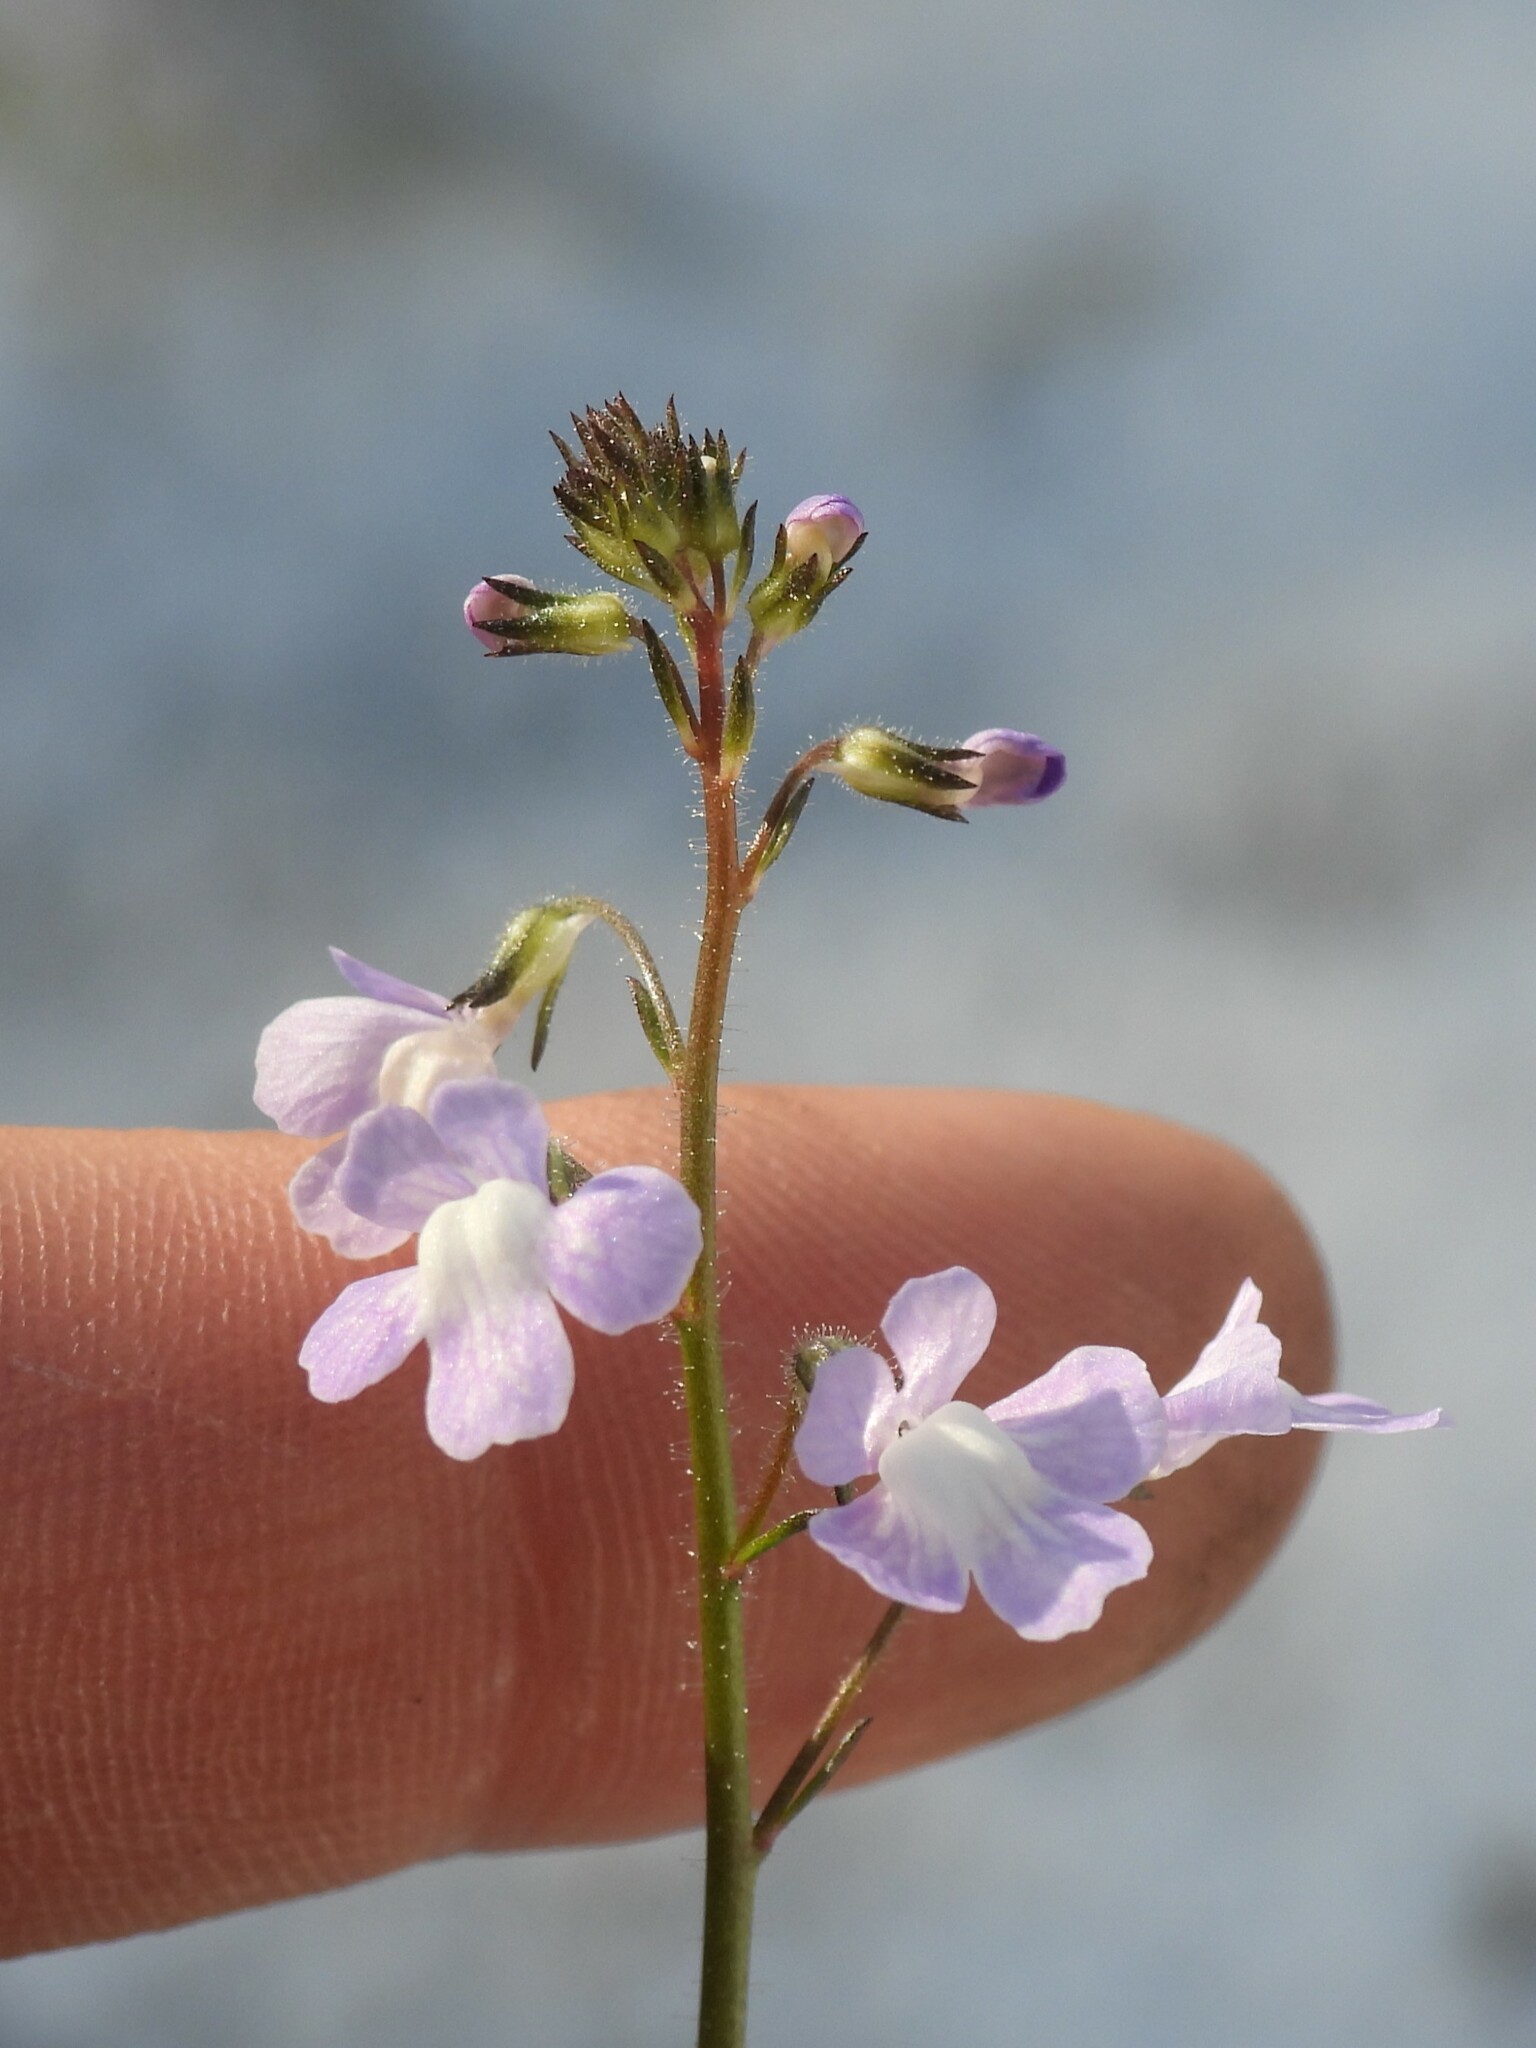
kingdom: Plantae
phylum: Tracheophyta
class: Magnoliopsida
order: Lamiales
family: Plantaginaceae
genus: Nuttallanthus
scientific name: Nuttallanthus floridanus
